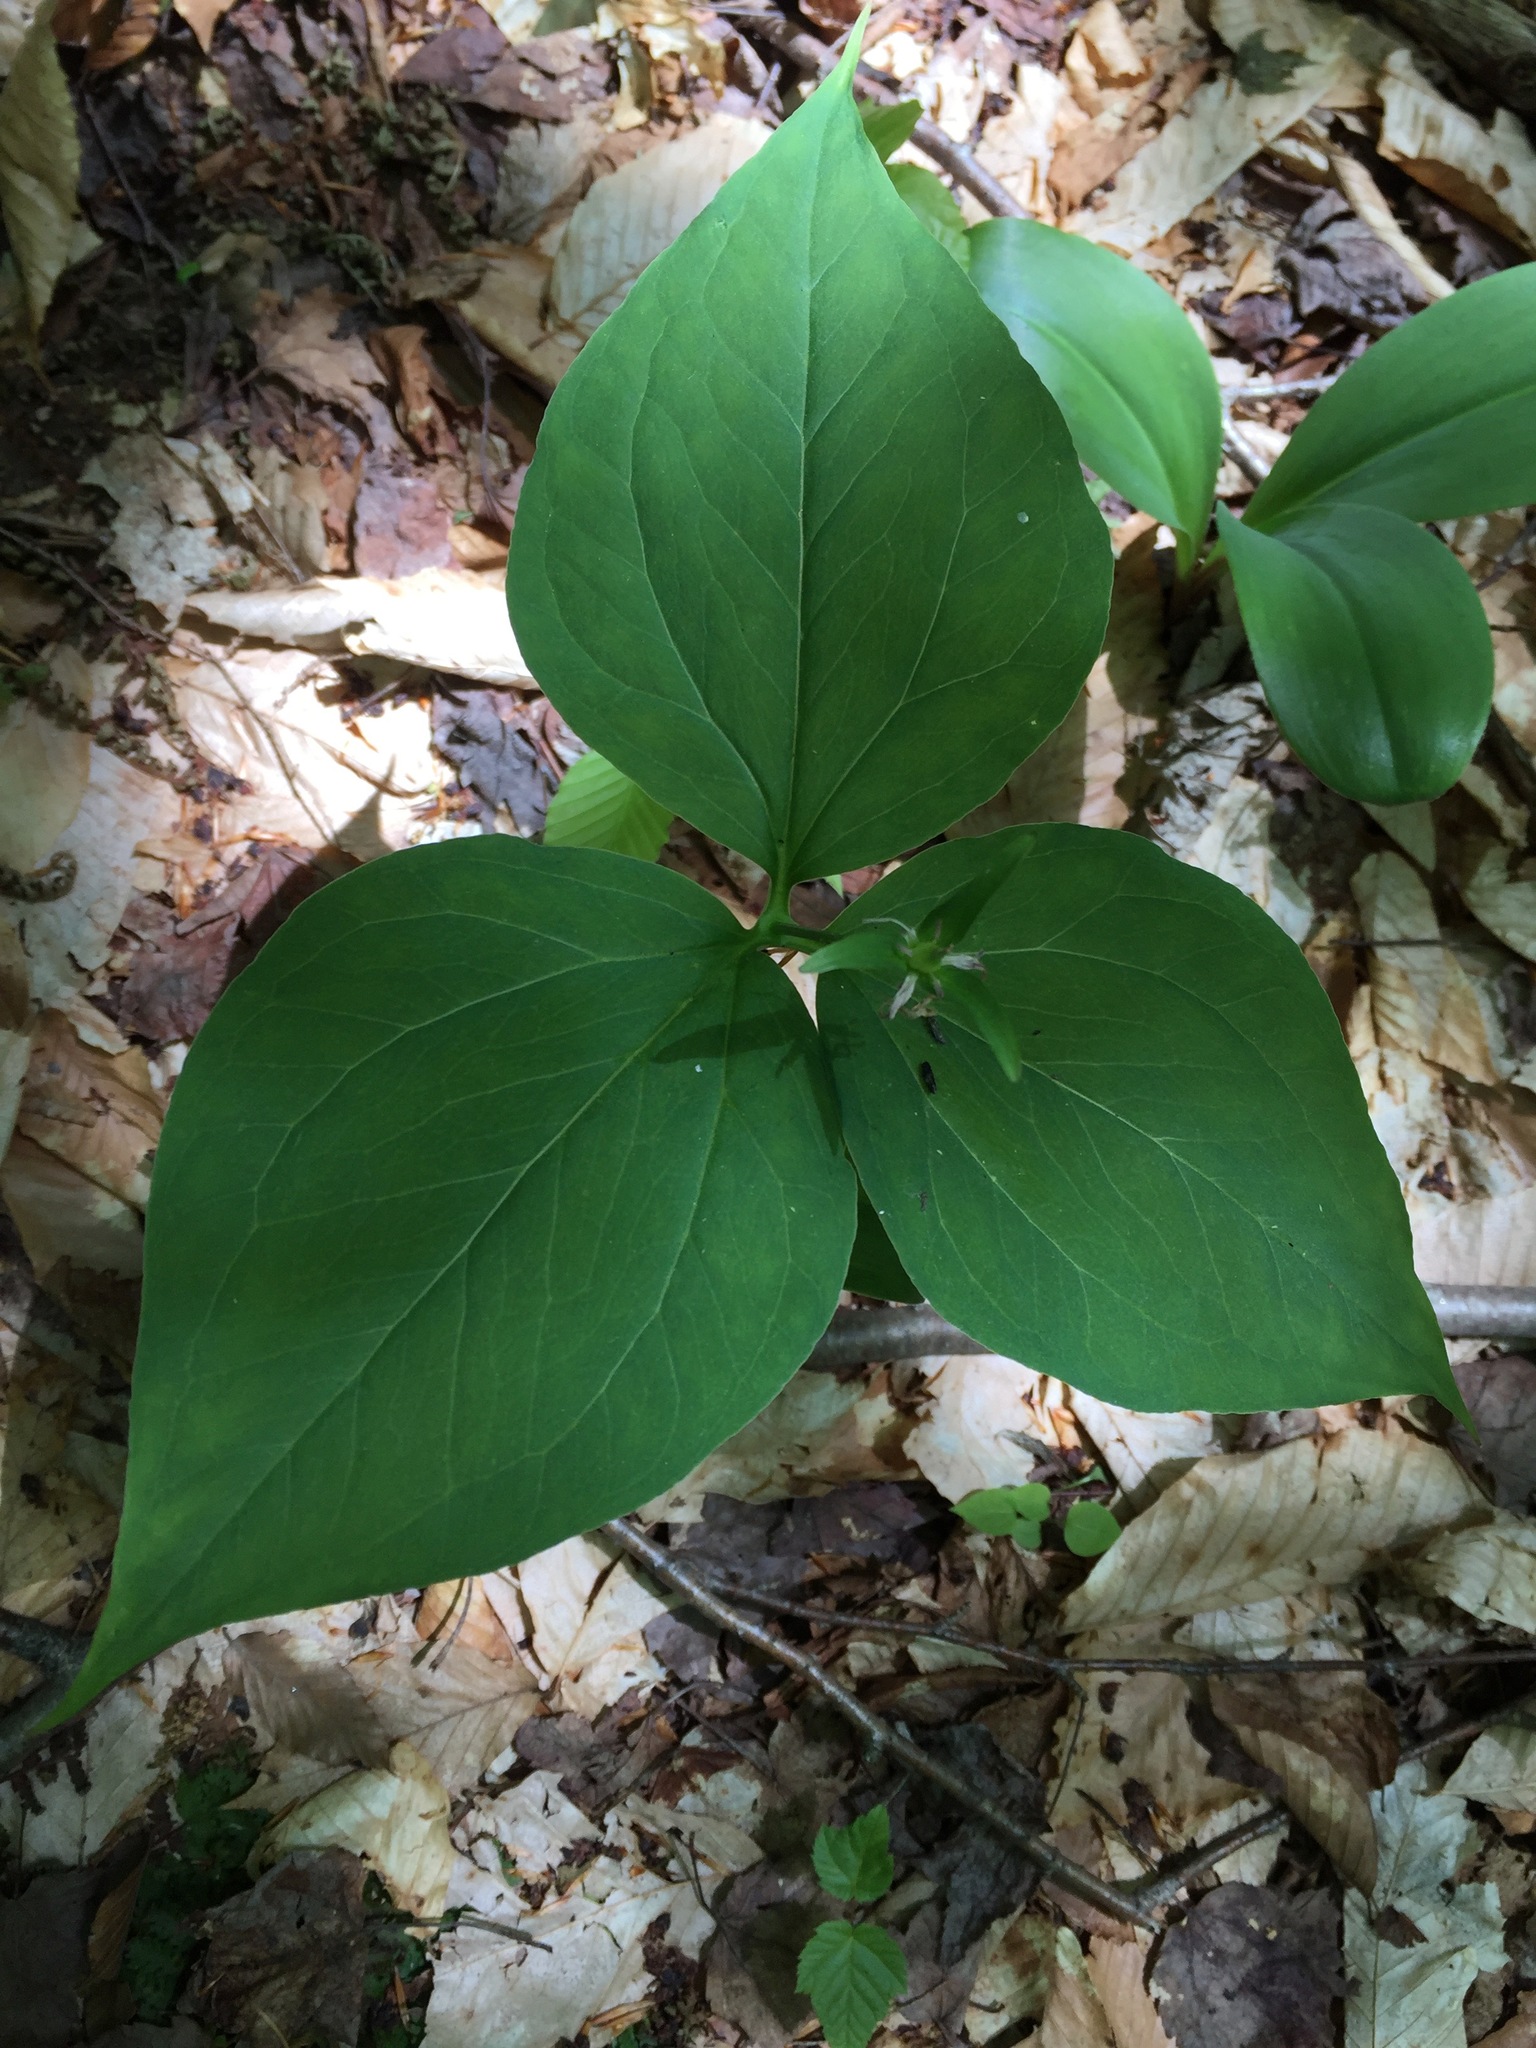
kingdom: Plantae
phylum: Tracheophyta
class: Liliopsida
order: Liliales
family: Melanthiaceae
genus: Trillium
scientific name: Trillium undulatum
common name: Paint trillium
